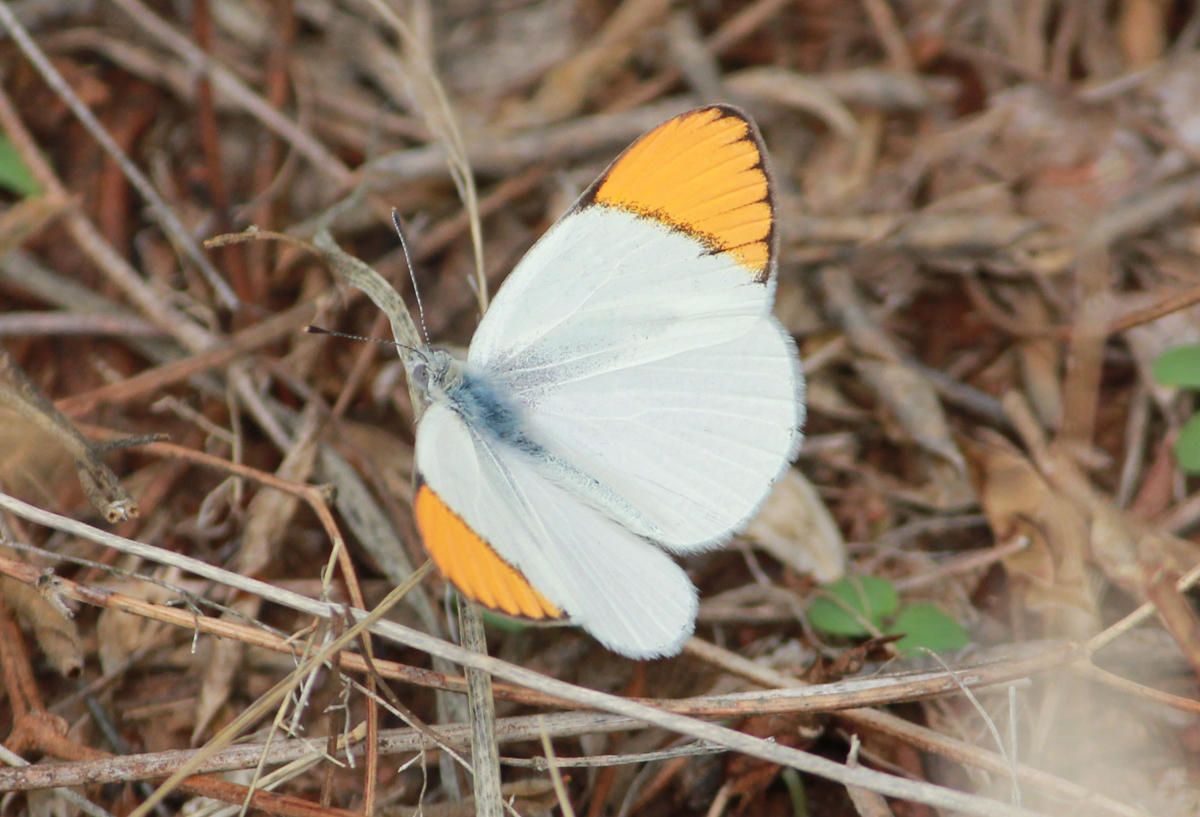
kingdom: Animalia
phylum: Arthropoda
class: Insecta
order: Lepidoptera
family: Pieridae
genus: Colotis
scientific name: Colotis evenina
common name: Common orange tip
